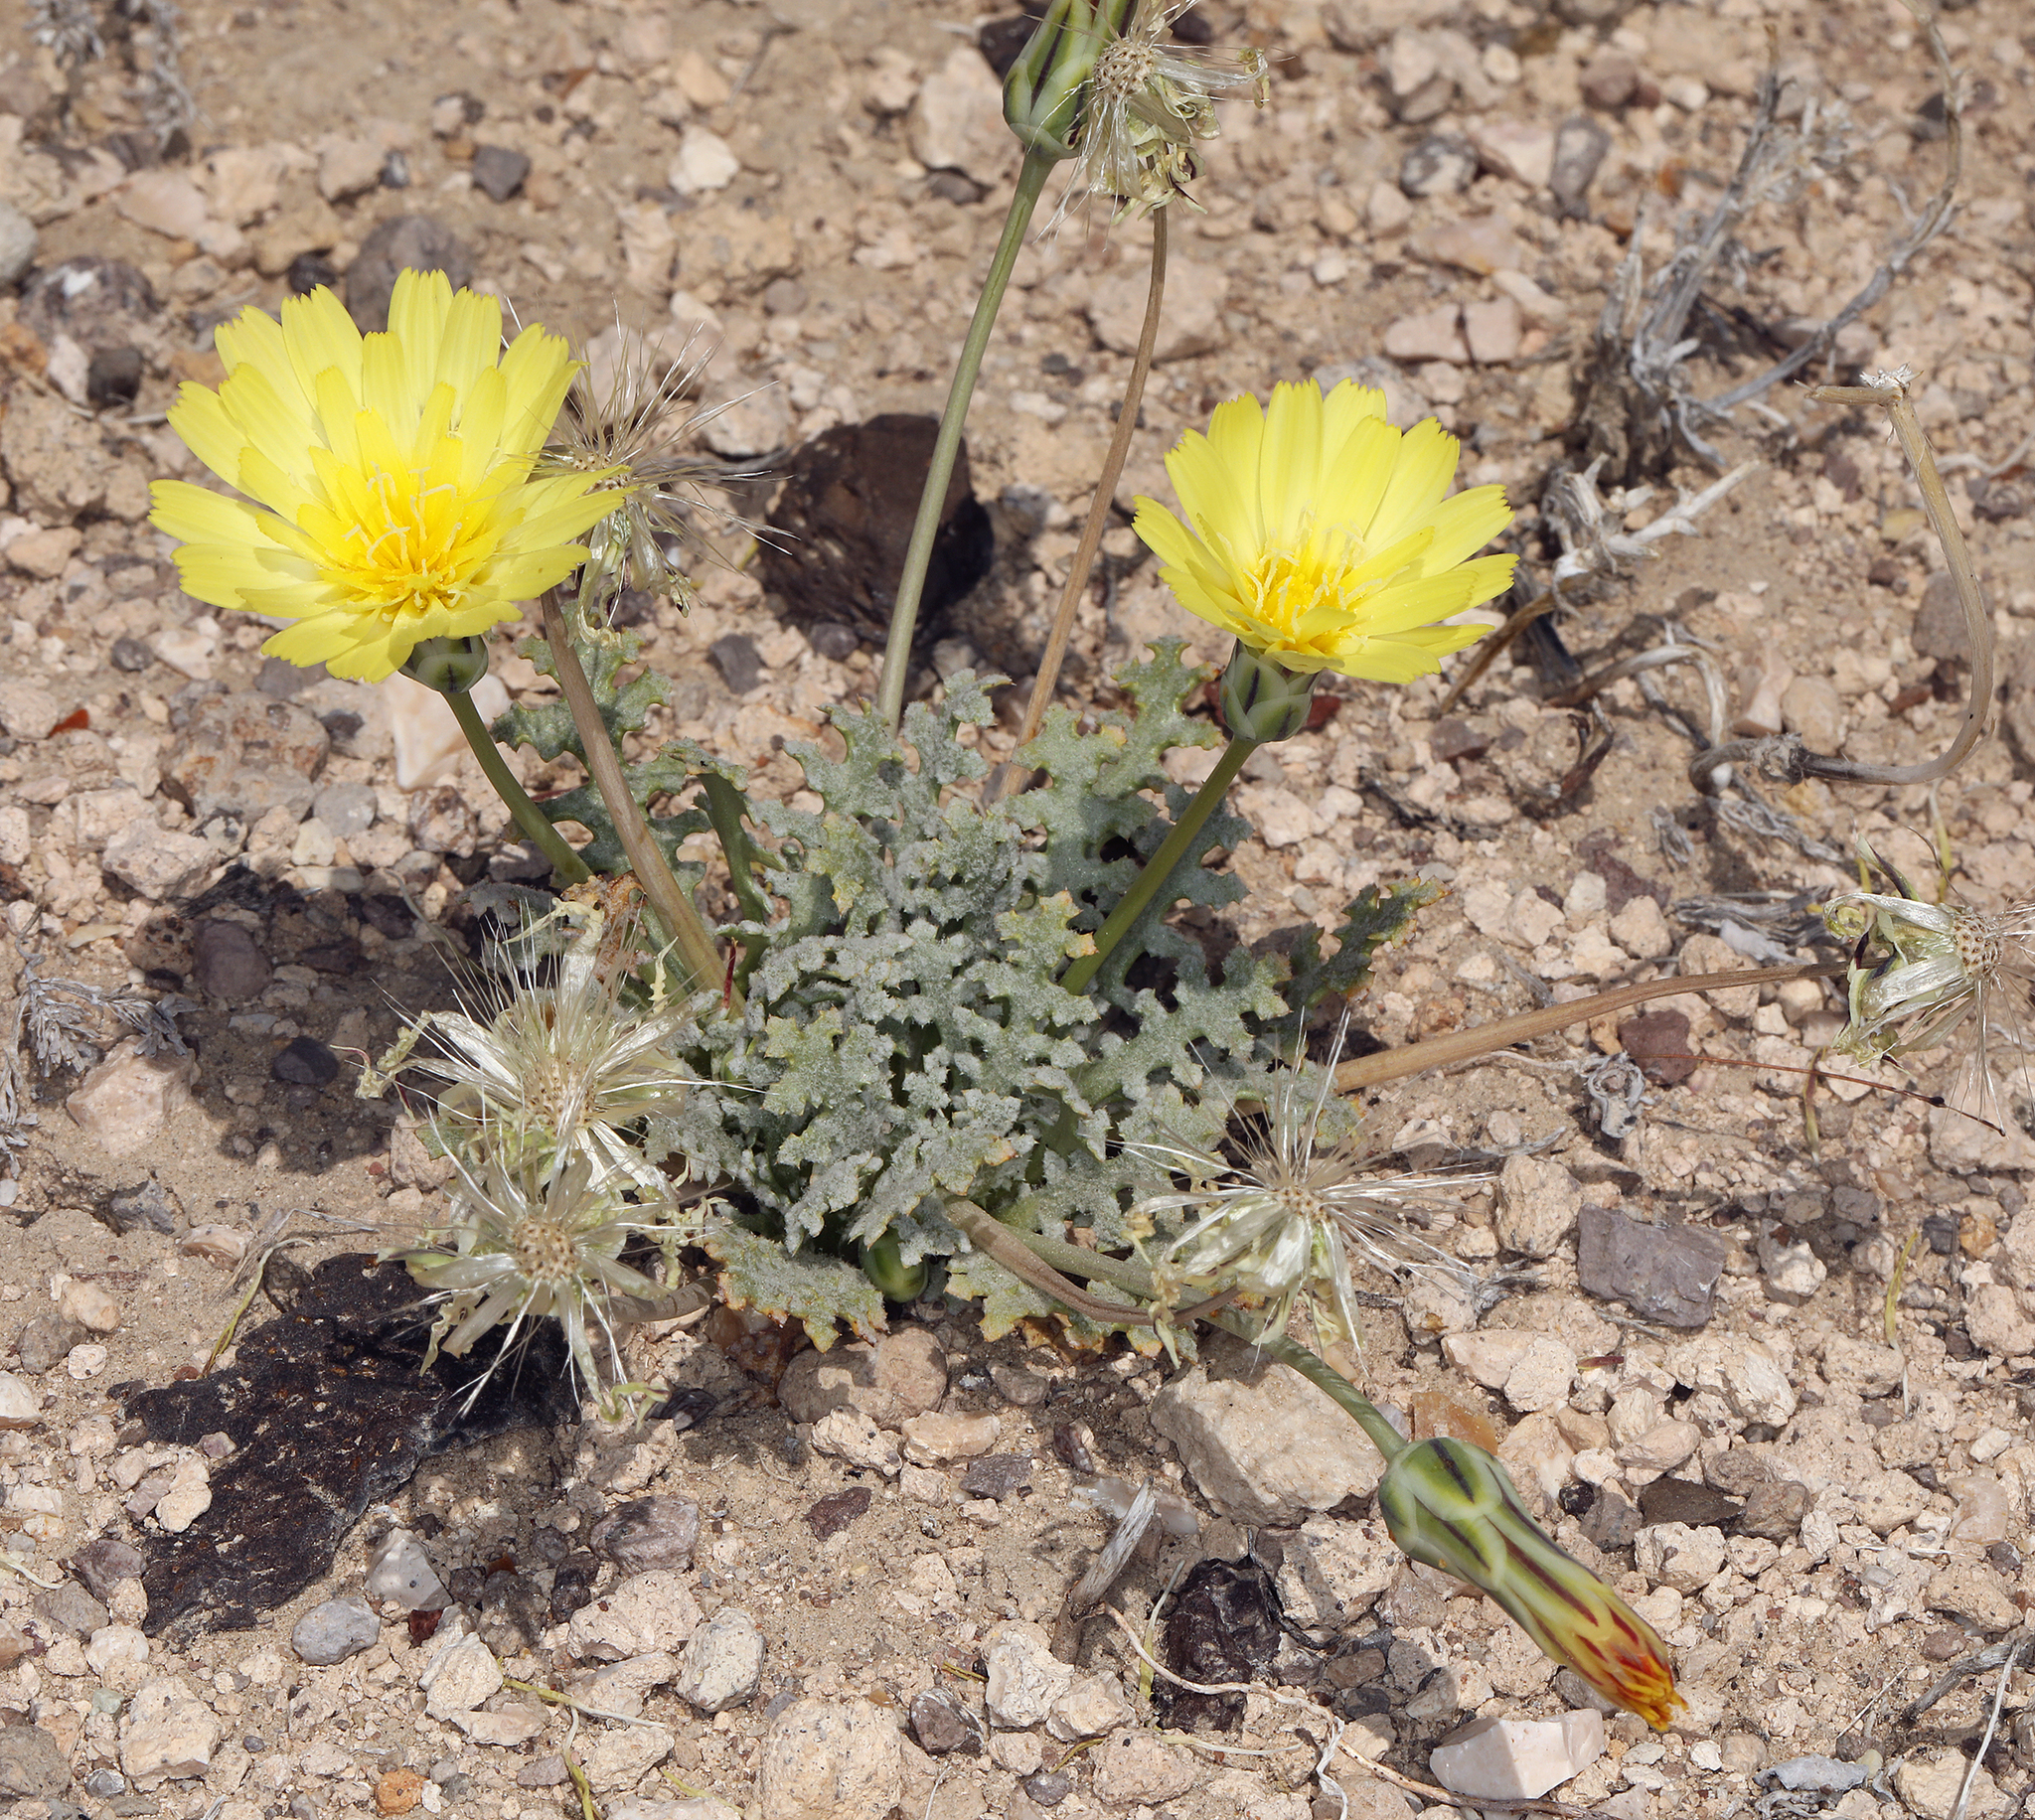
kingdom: Plantae
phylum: Tracheophyta
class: Magnoliopsida
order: Asterales
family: Asteraceae
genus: Anisocoma
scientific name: Anisocoma acaulis
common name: Scalebud
